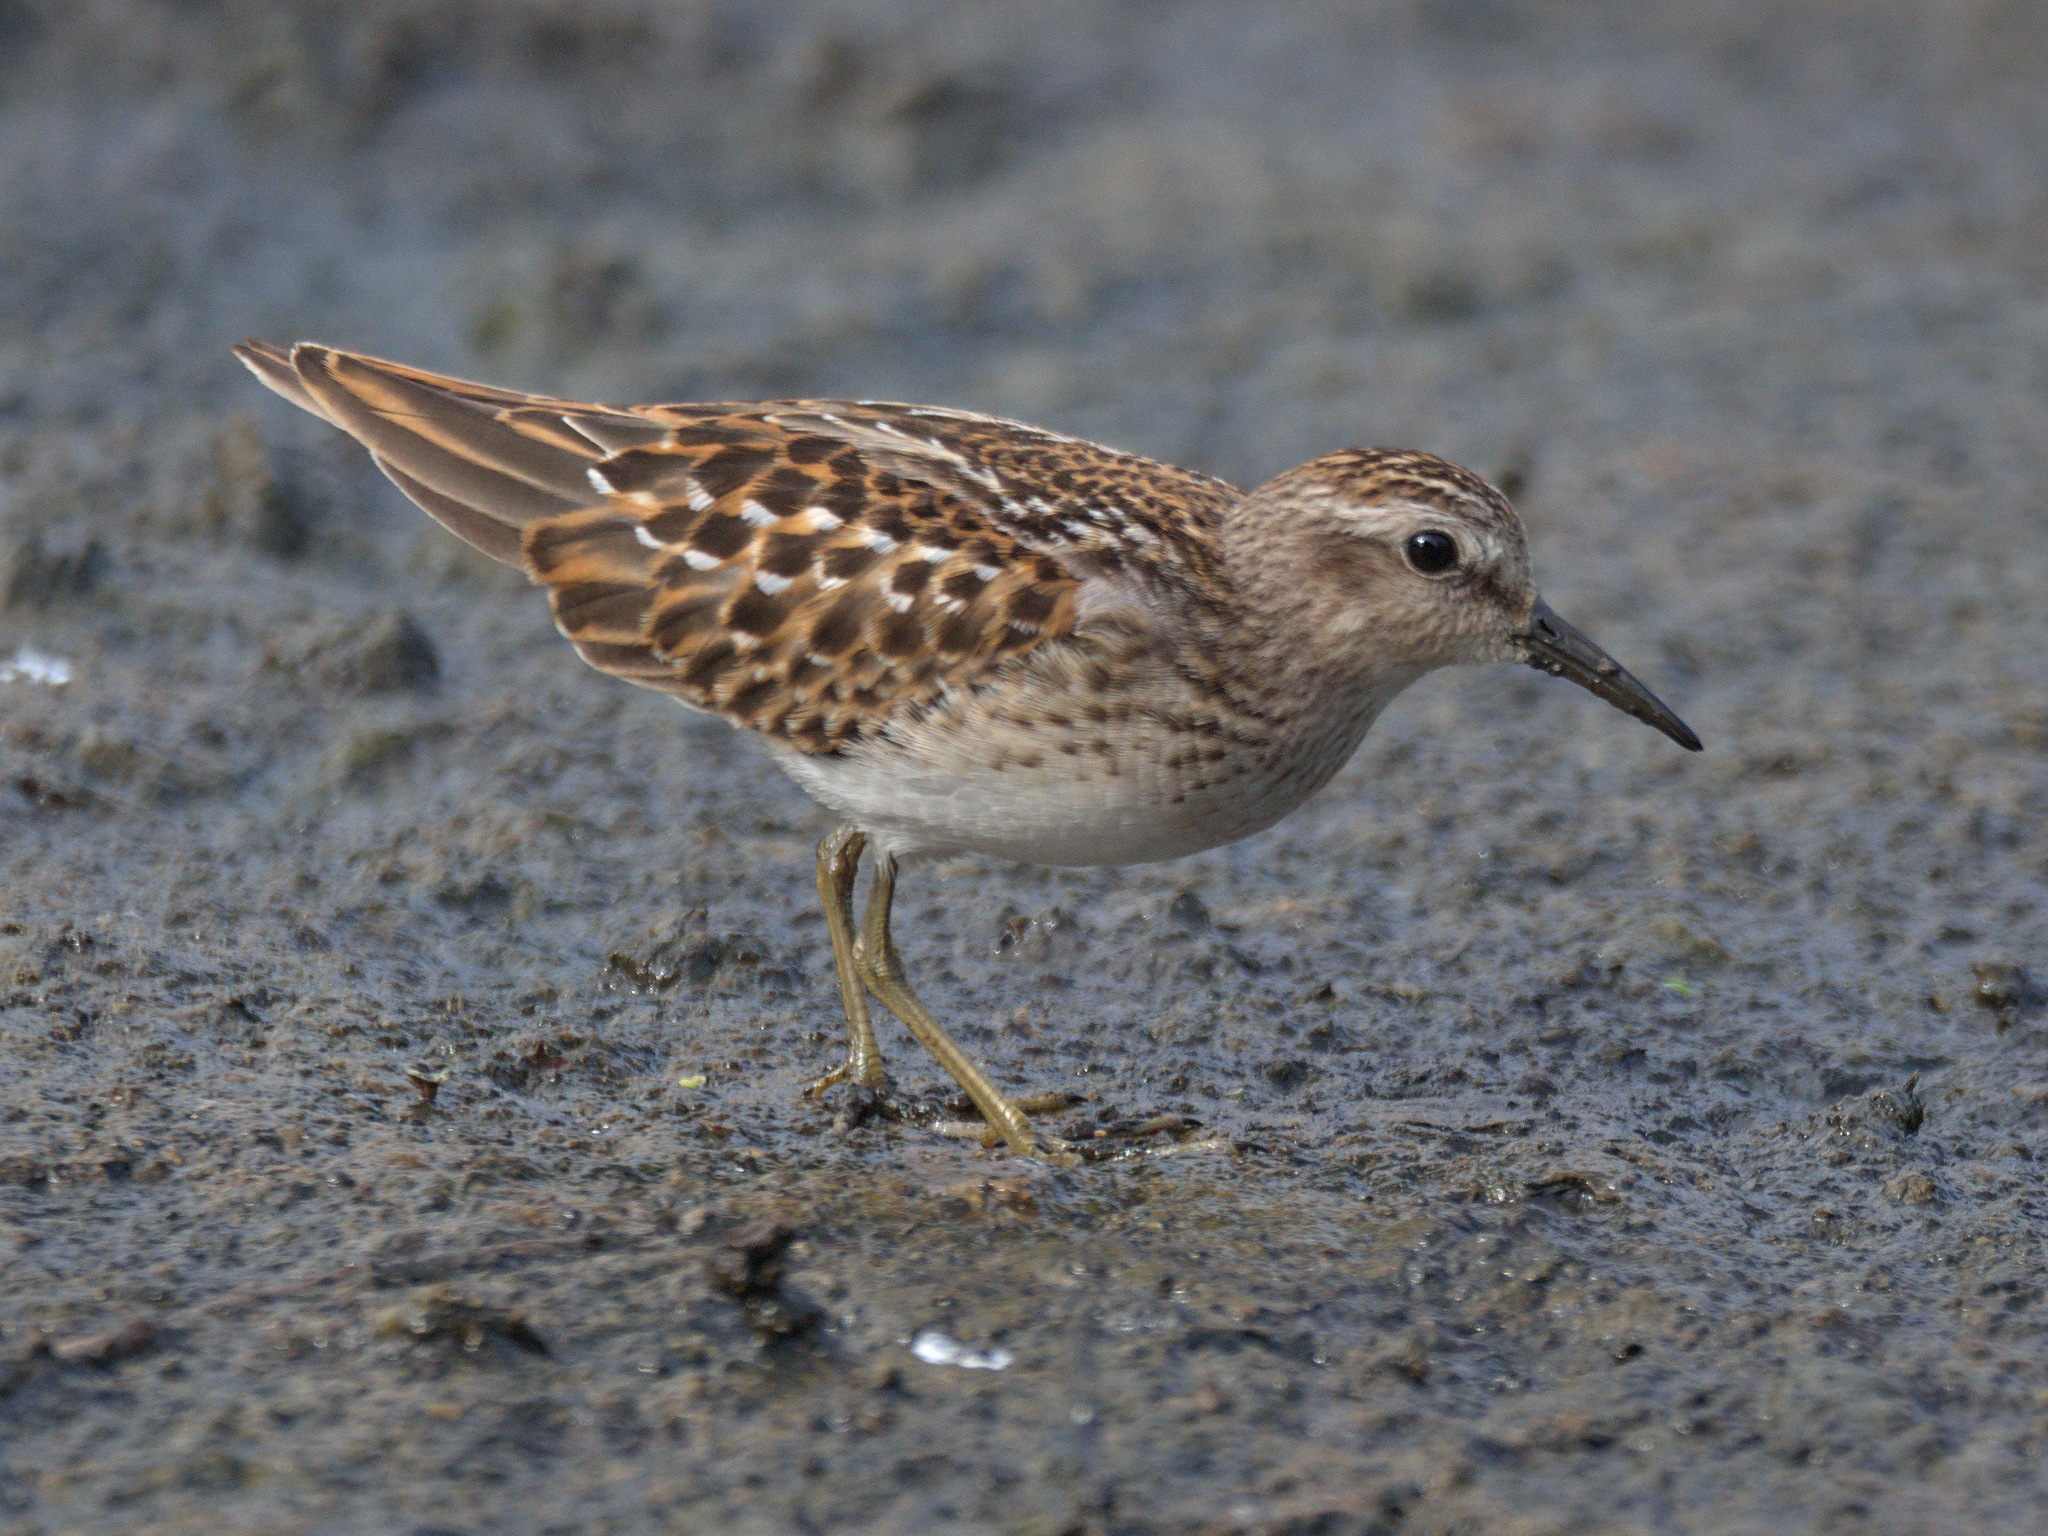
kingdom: Animalia
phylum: Chordata
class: Aves
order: Charadriiformes
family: Scolopacidae
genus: Calidris
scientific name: Calidris minutilla
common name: Least sandpiper
